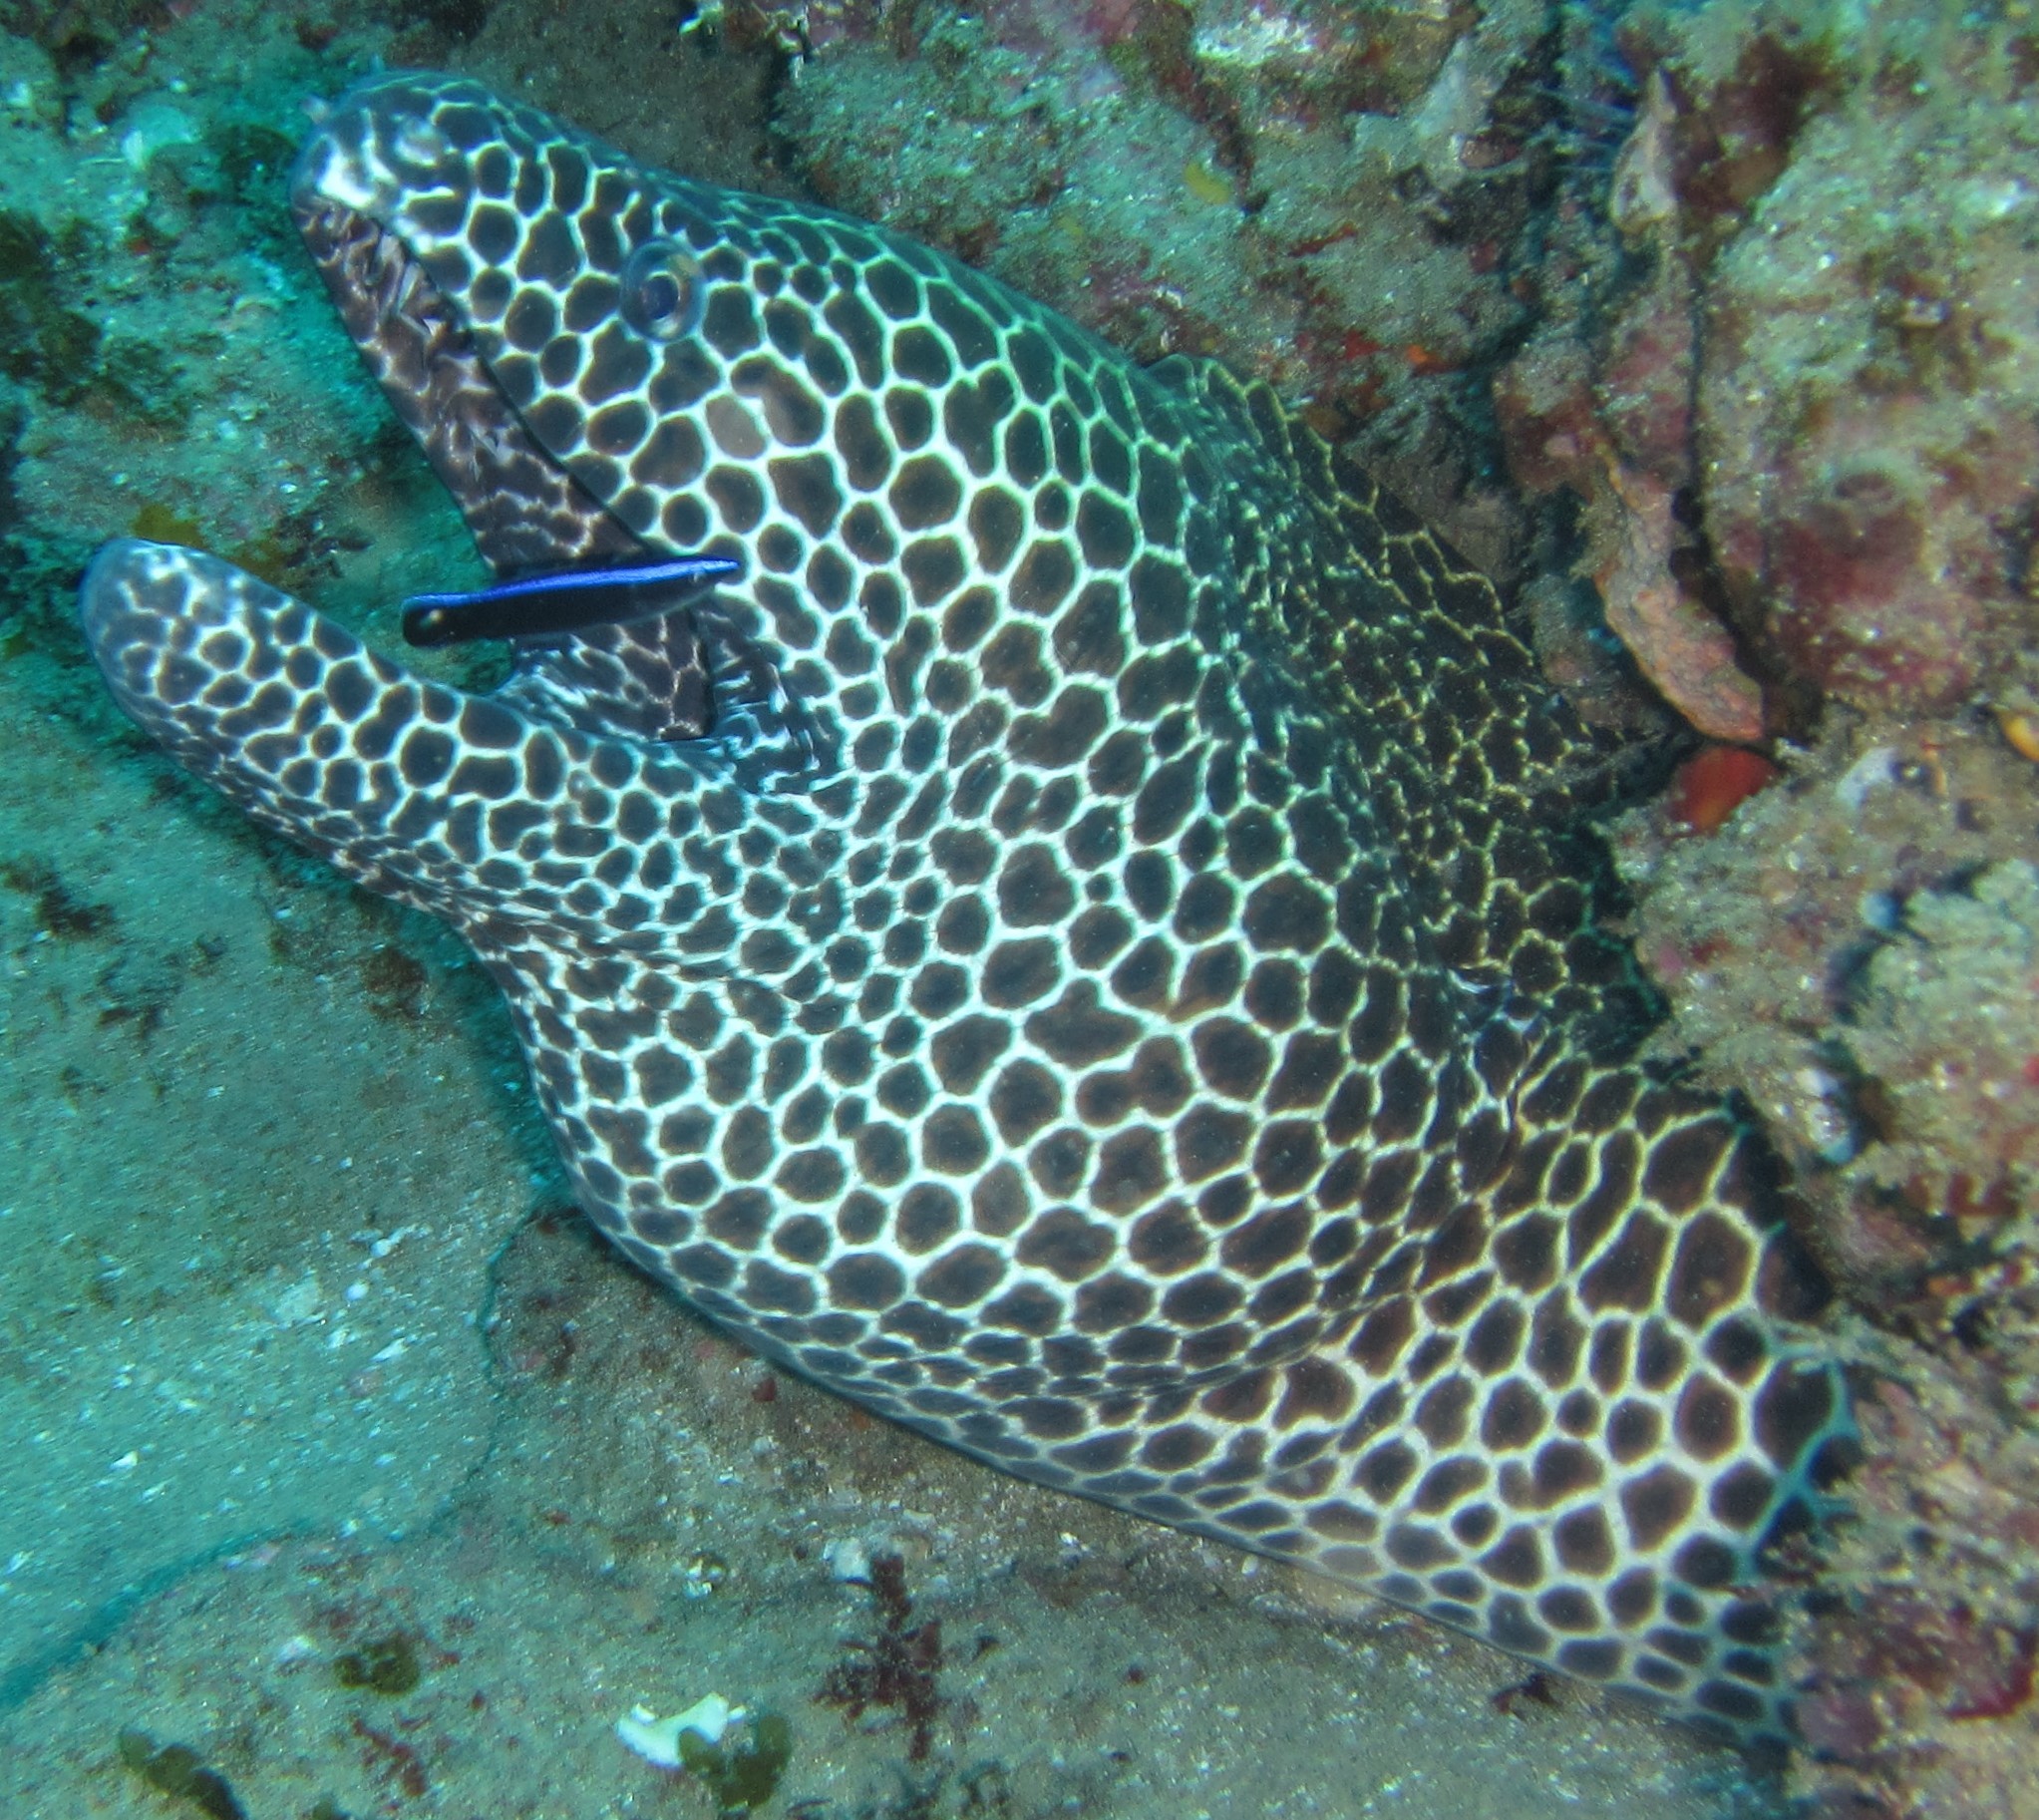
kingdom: Animalia
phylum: Chordata
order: Anguilliformes
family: Muraenidae
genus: Gymnothorax
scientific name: Gymnothorax favagineus
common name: Honeycomb moray
